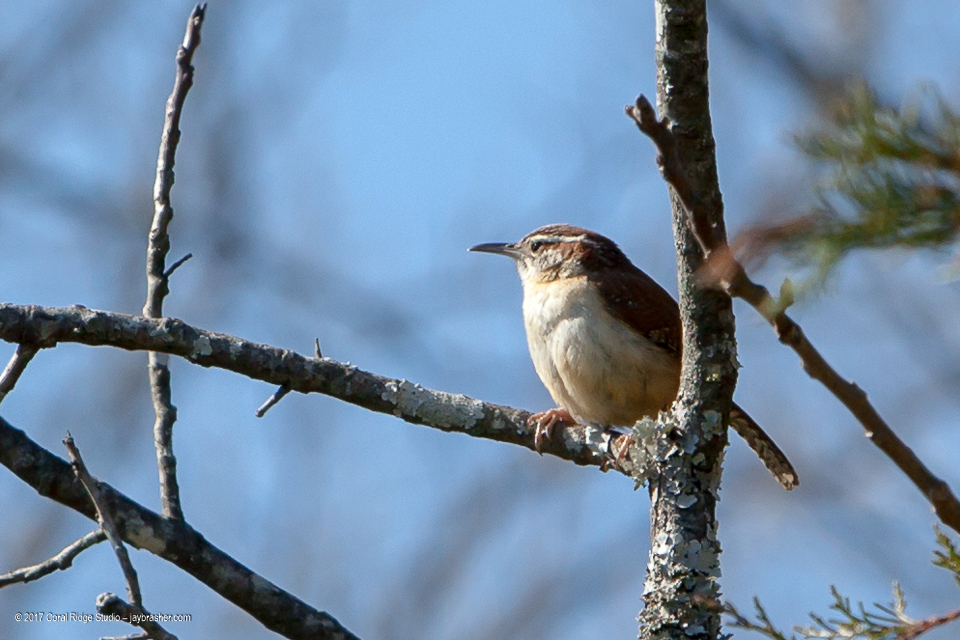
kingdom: Animalia
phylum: Chordata
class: Aves
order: Passeriformes
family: Troglodytidae
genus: Thryothorus
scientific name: Thryothorus ludovicianus
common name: Carolina wren
